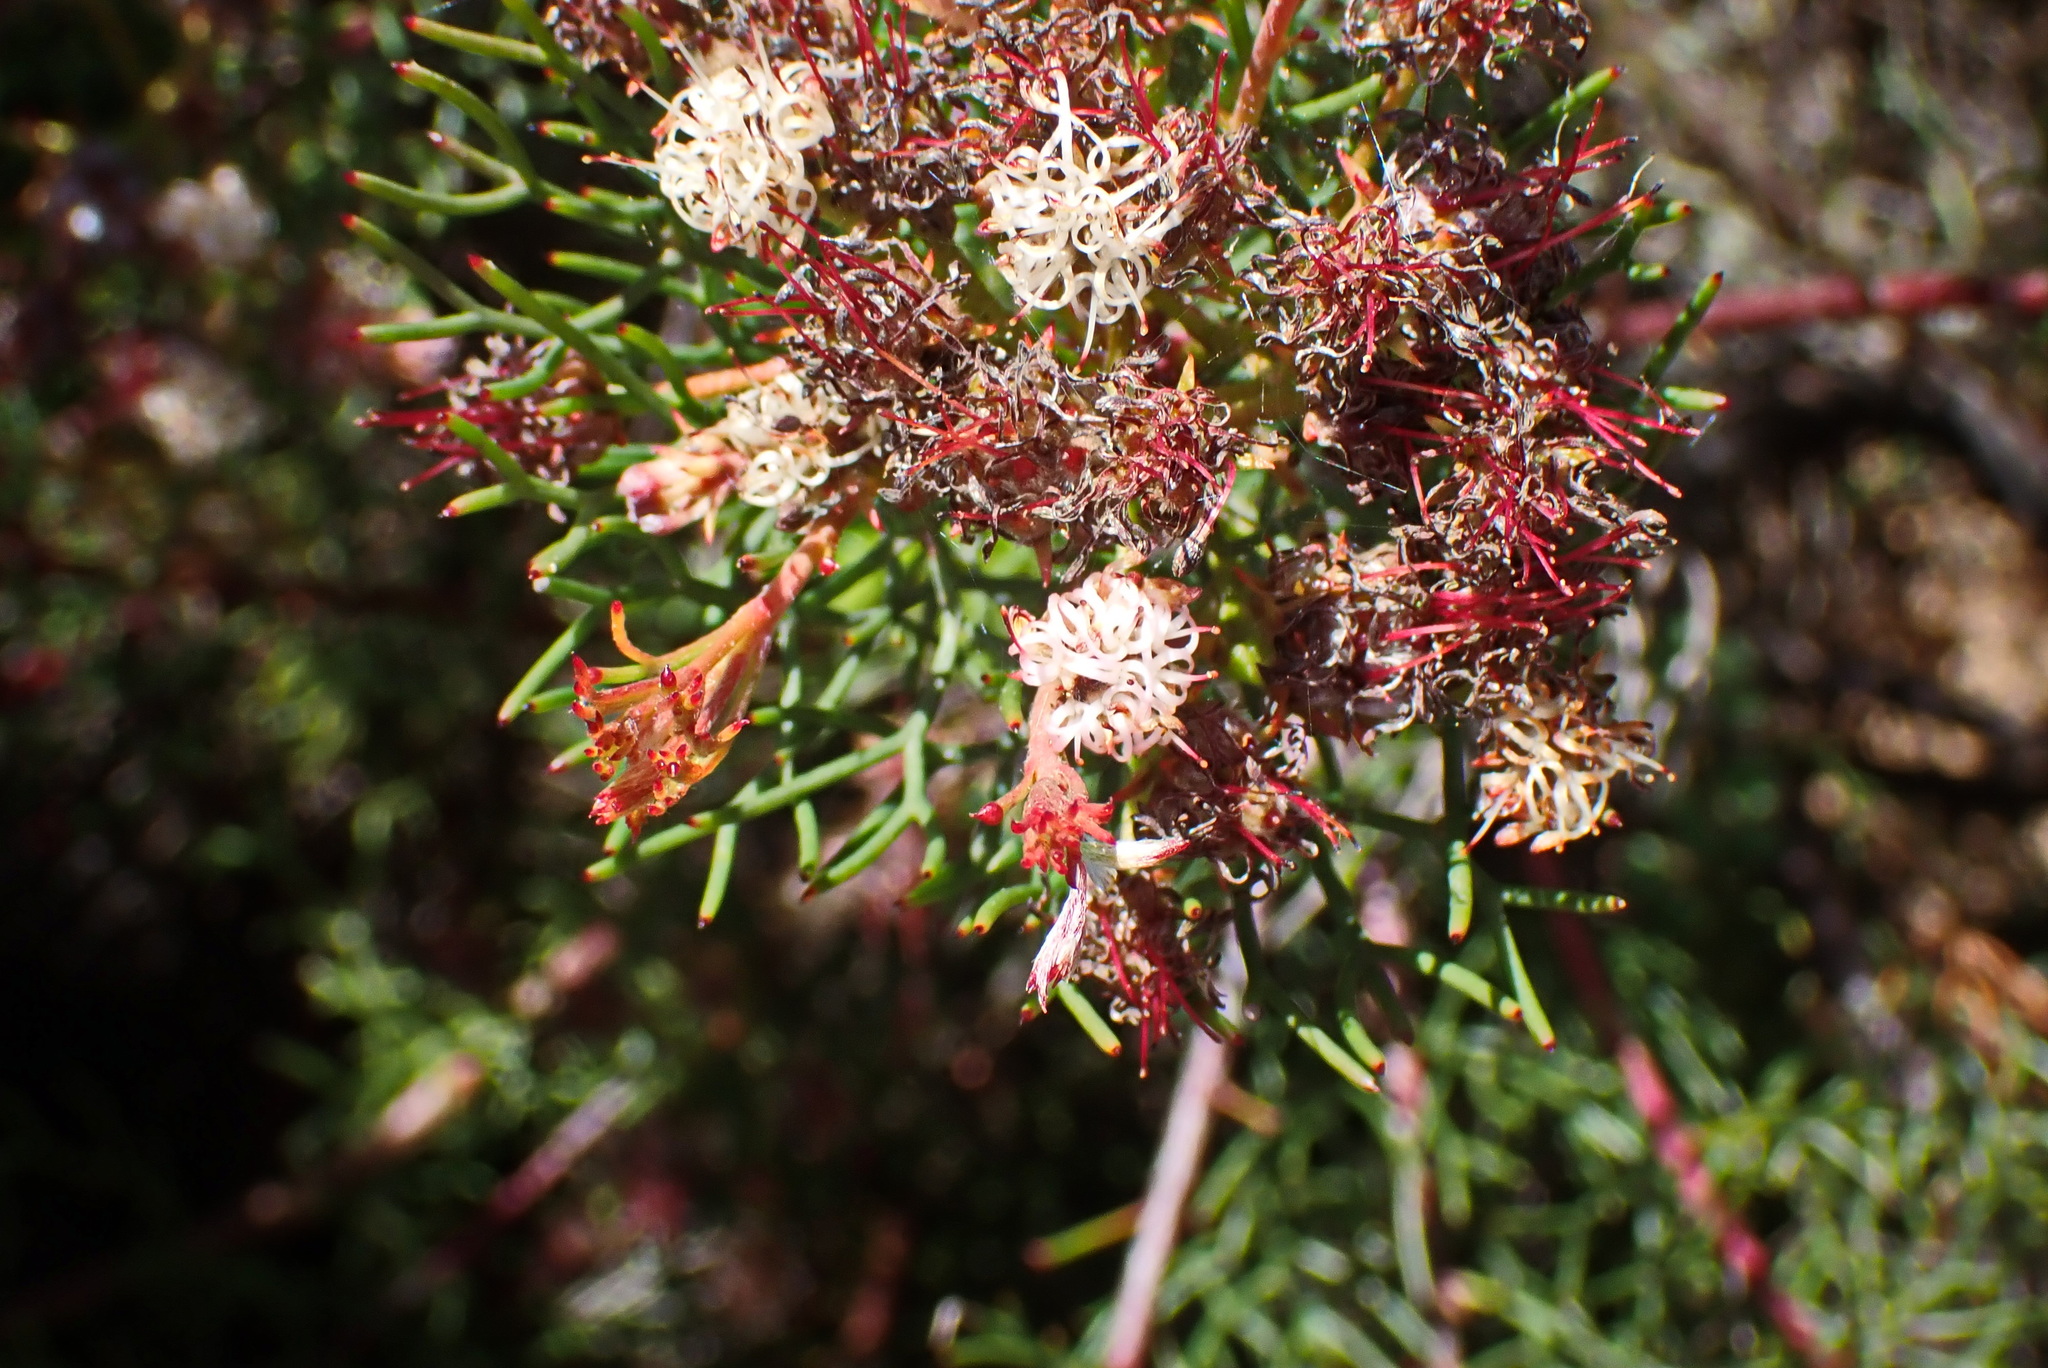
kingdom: Plantae
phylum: Tracheophyta
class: Magnoliopsida
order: Proteales
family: Proteaceae
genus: Serruria
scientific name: Serruria fasciflora
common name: Common pin spiderhead
